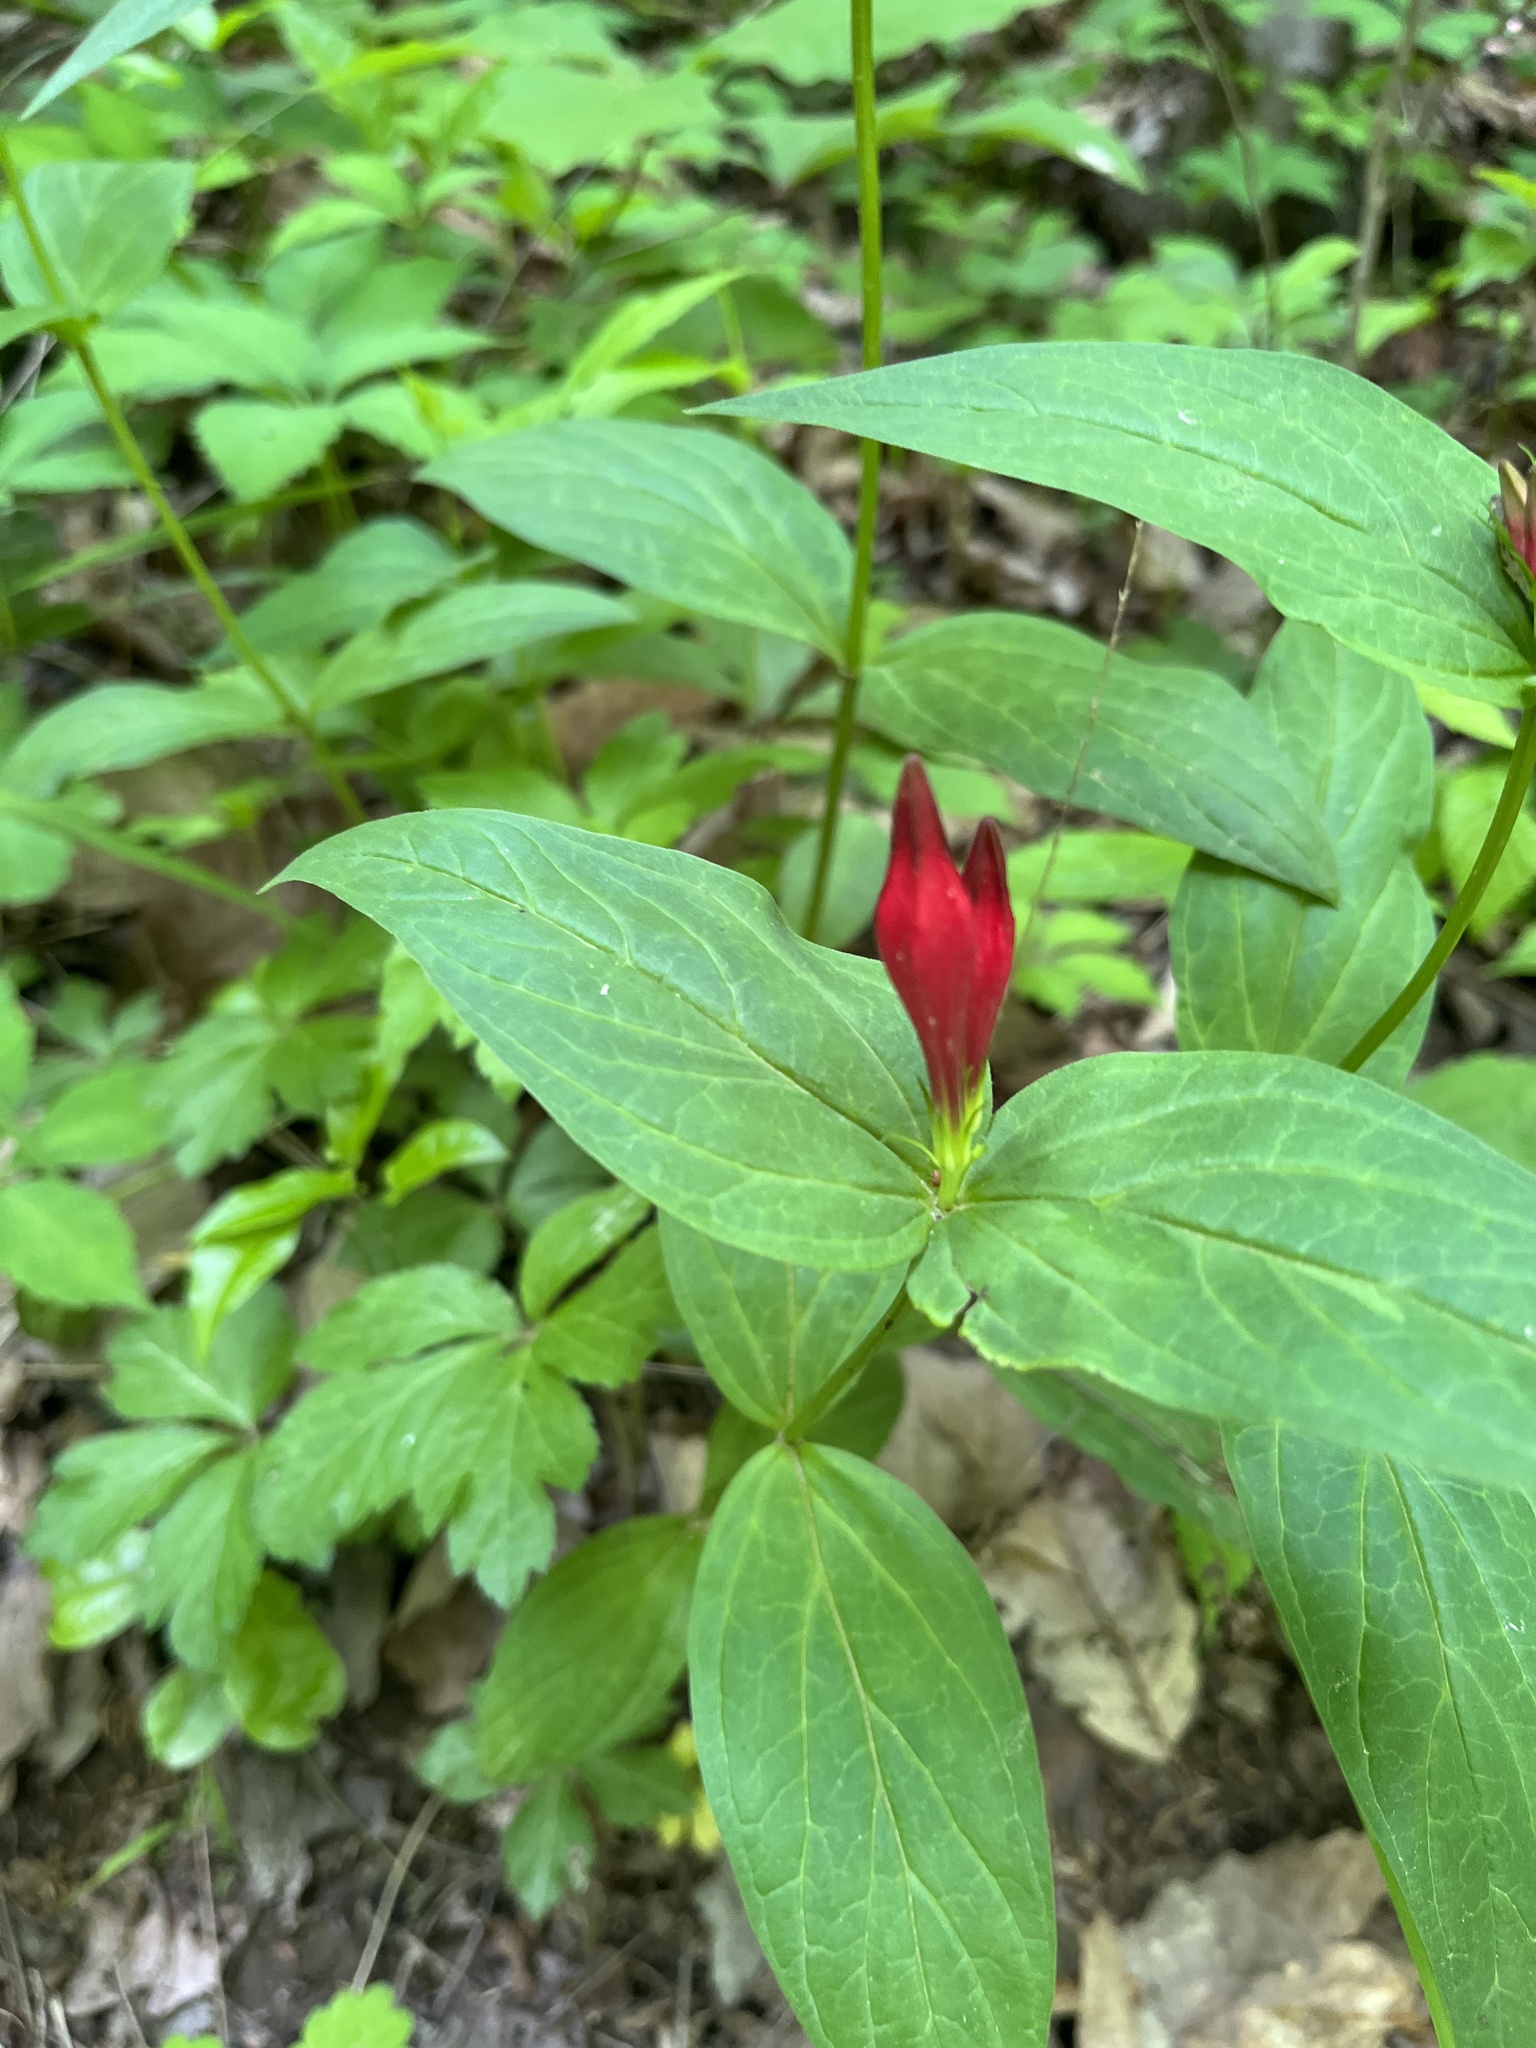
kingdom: Plantae
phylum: Tracheophyta
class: Magnoliopsida
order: Gentianales
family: Loganiaceae
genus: Spigelia
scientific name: Spigelia marilandica
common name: Indian-pink
